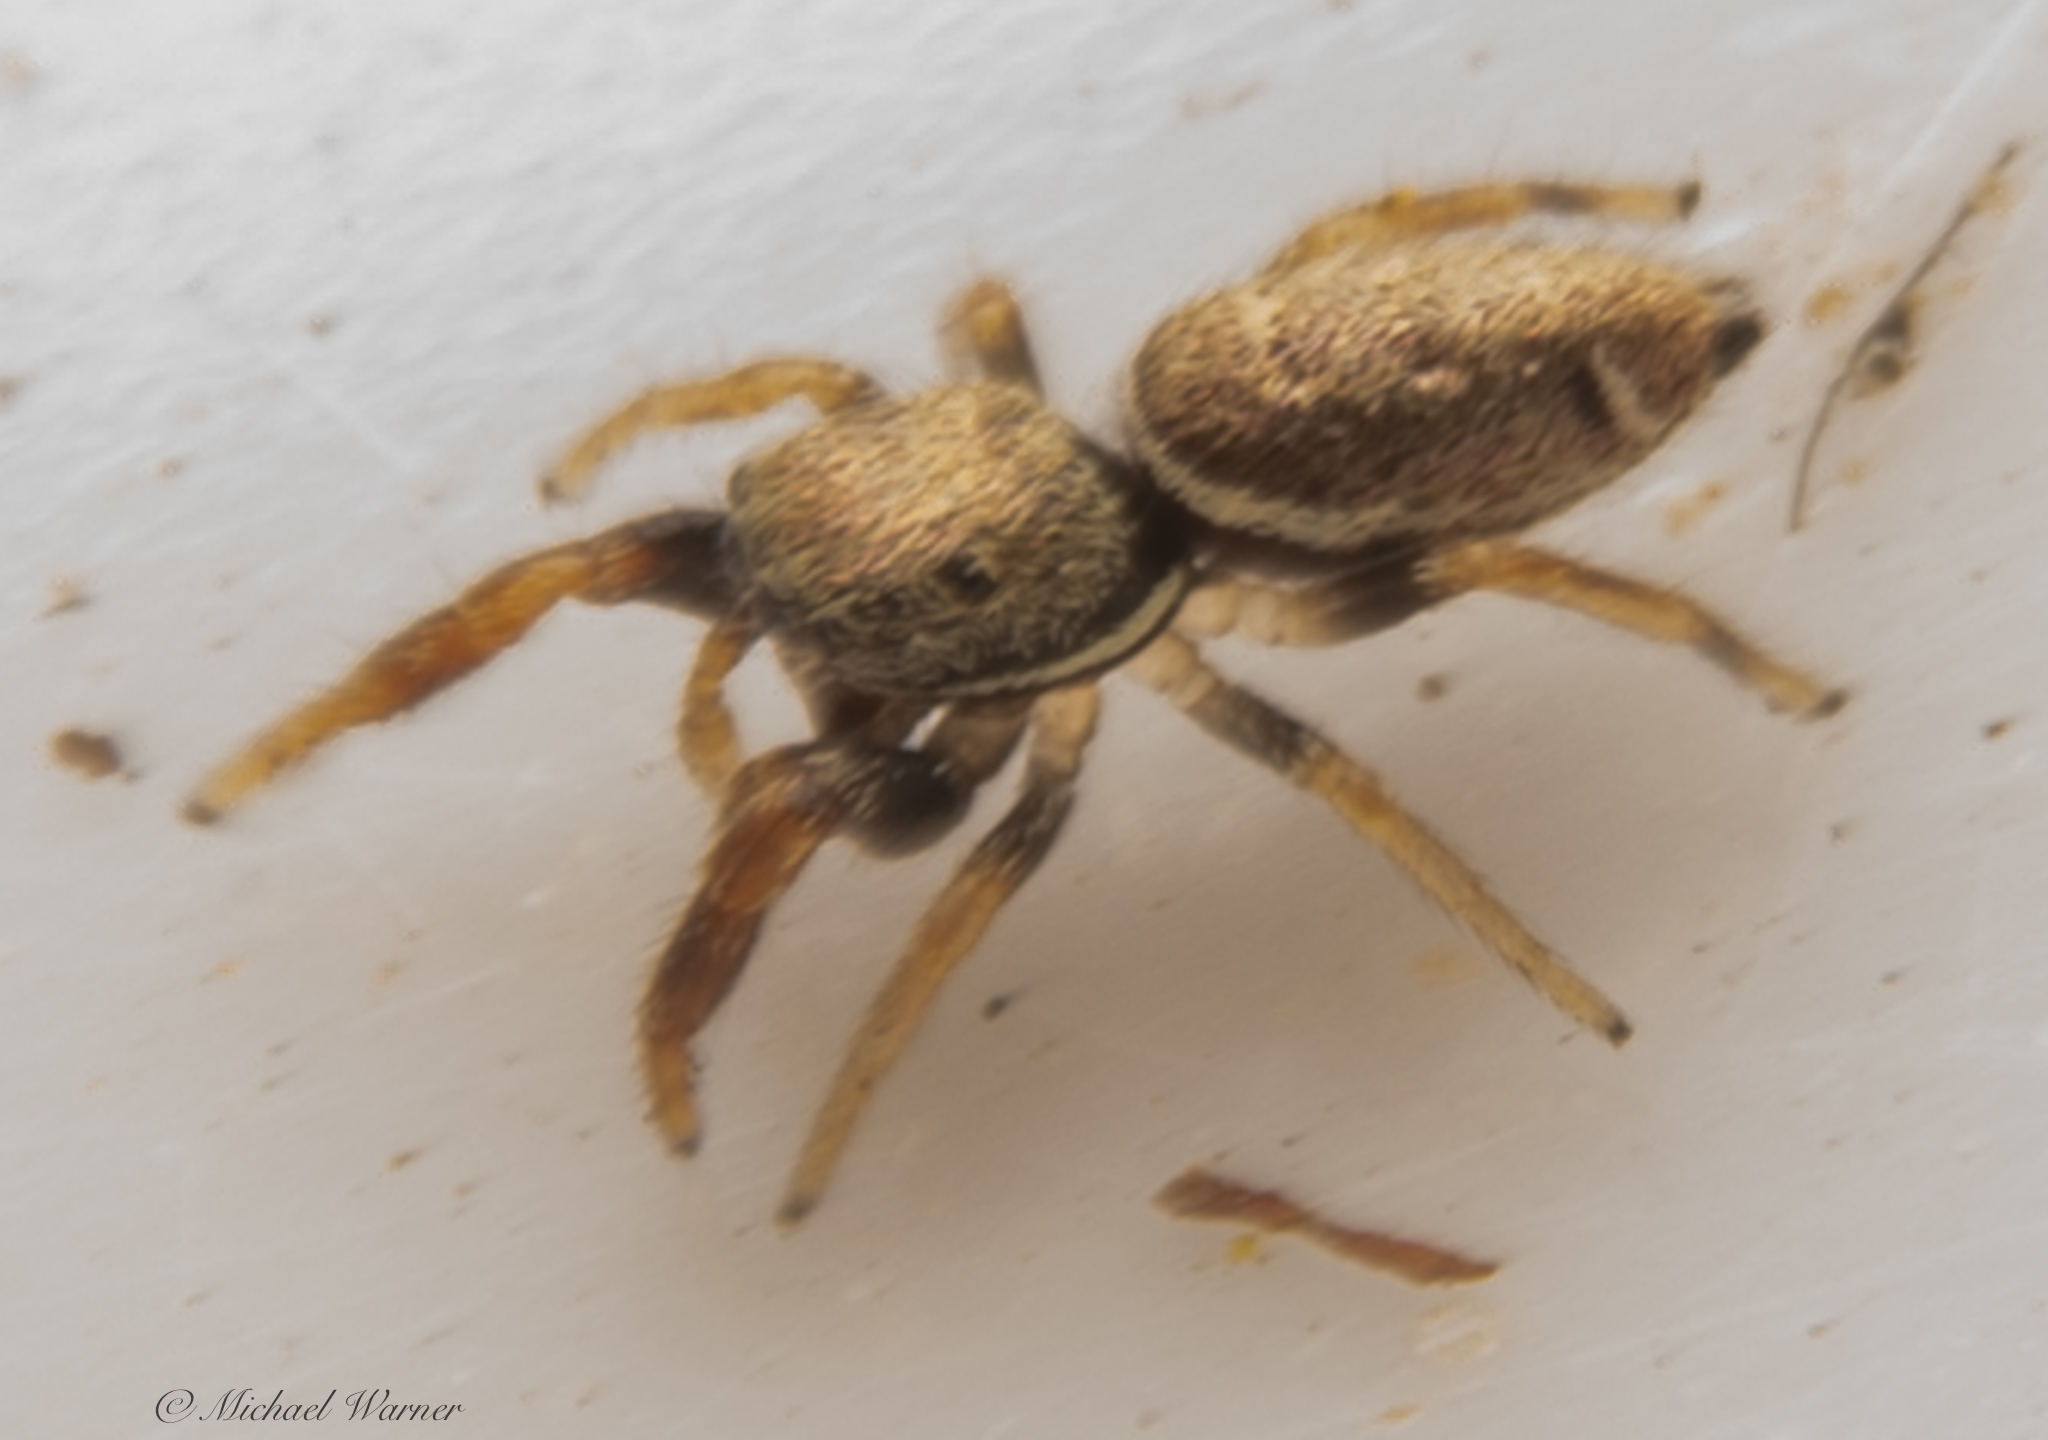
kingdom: Animalia
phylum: Arthropoda
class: Arachnida
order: Araneae
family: Salticidae
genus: Sassacus
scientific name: Sassacus vitis
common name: Jumping spiders
